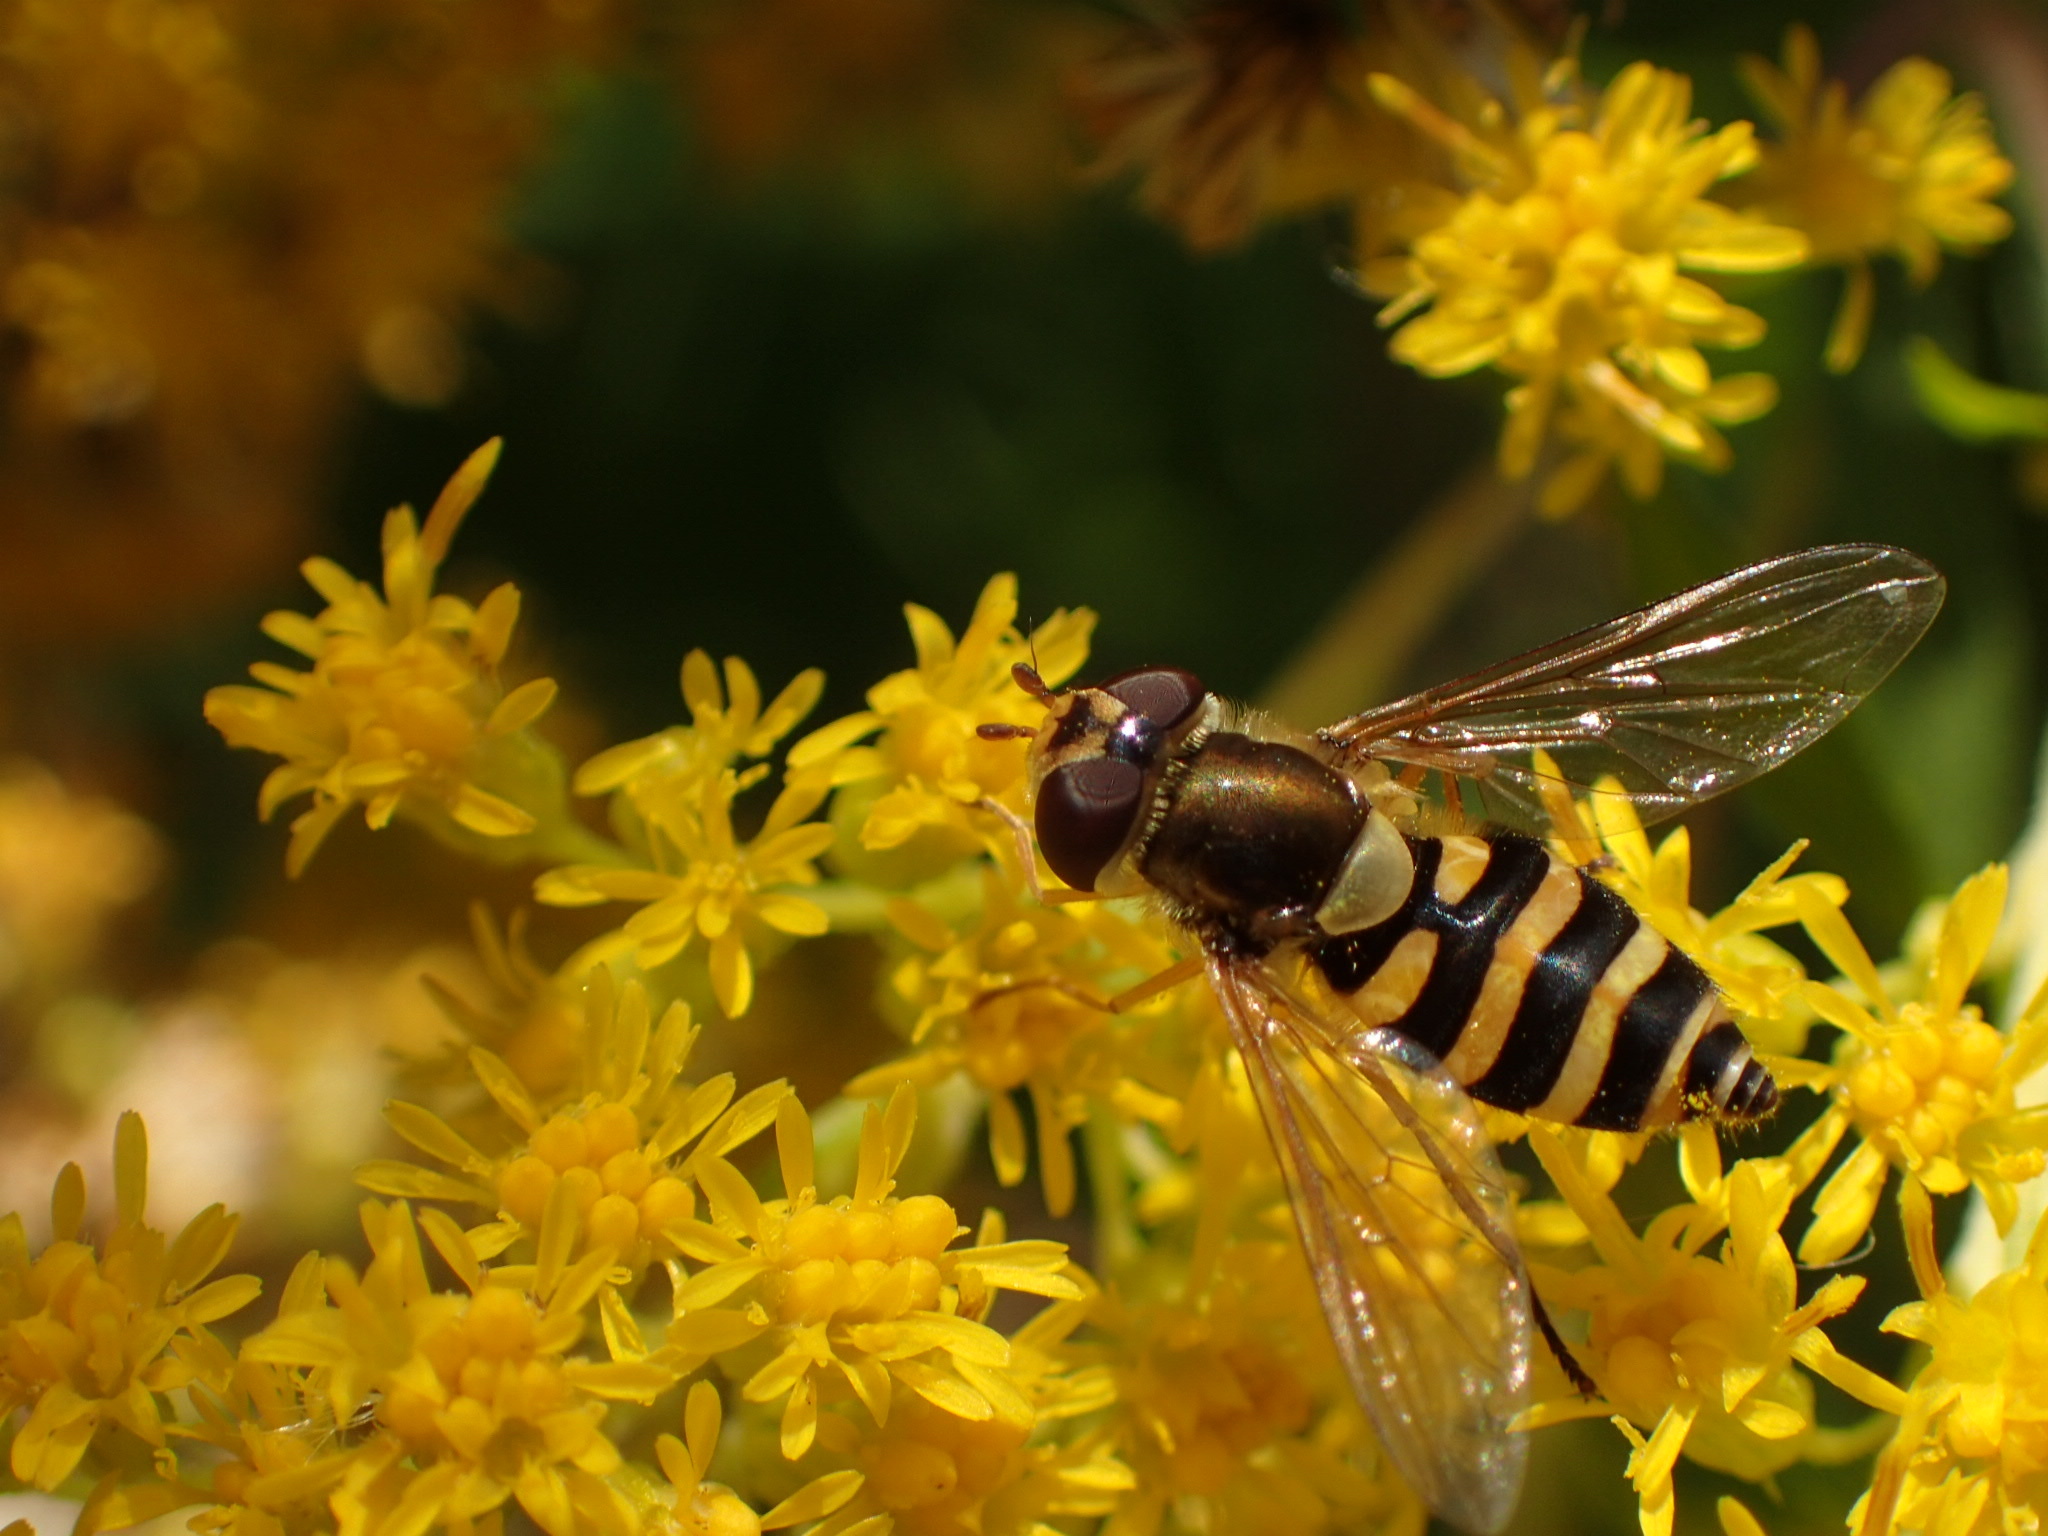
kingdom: Animalia
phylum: Arthropoda
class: Insecta
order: Diptera
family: Syrphidae
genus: Syrphus
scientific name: Syrphus ribesii
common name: Common flower fly
